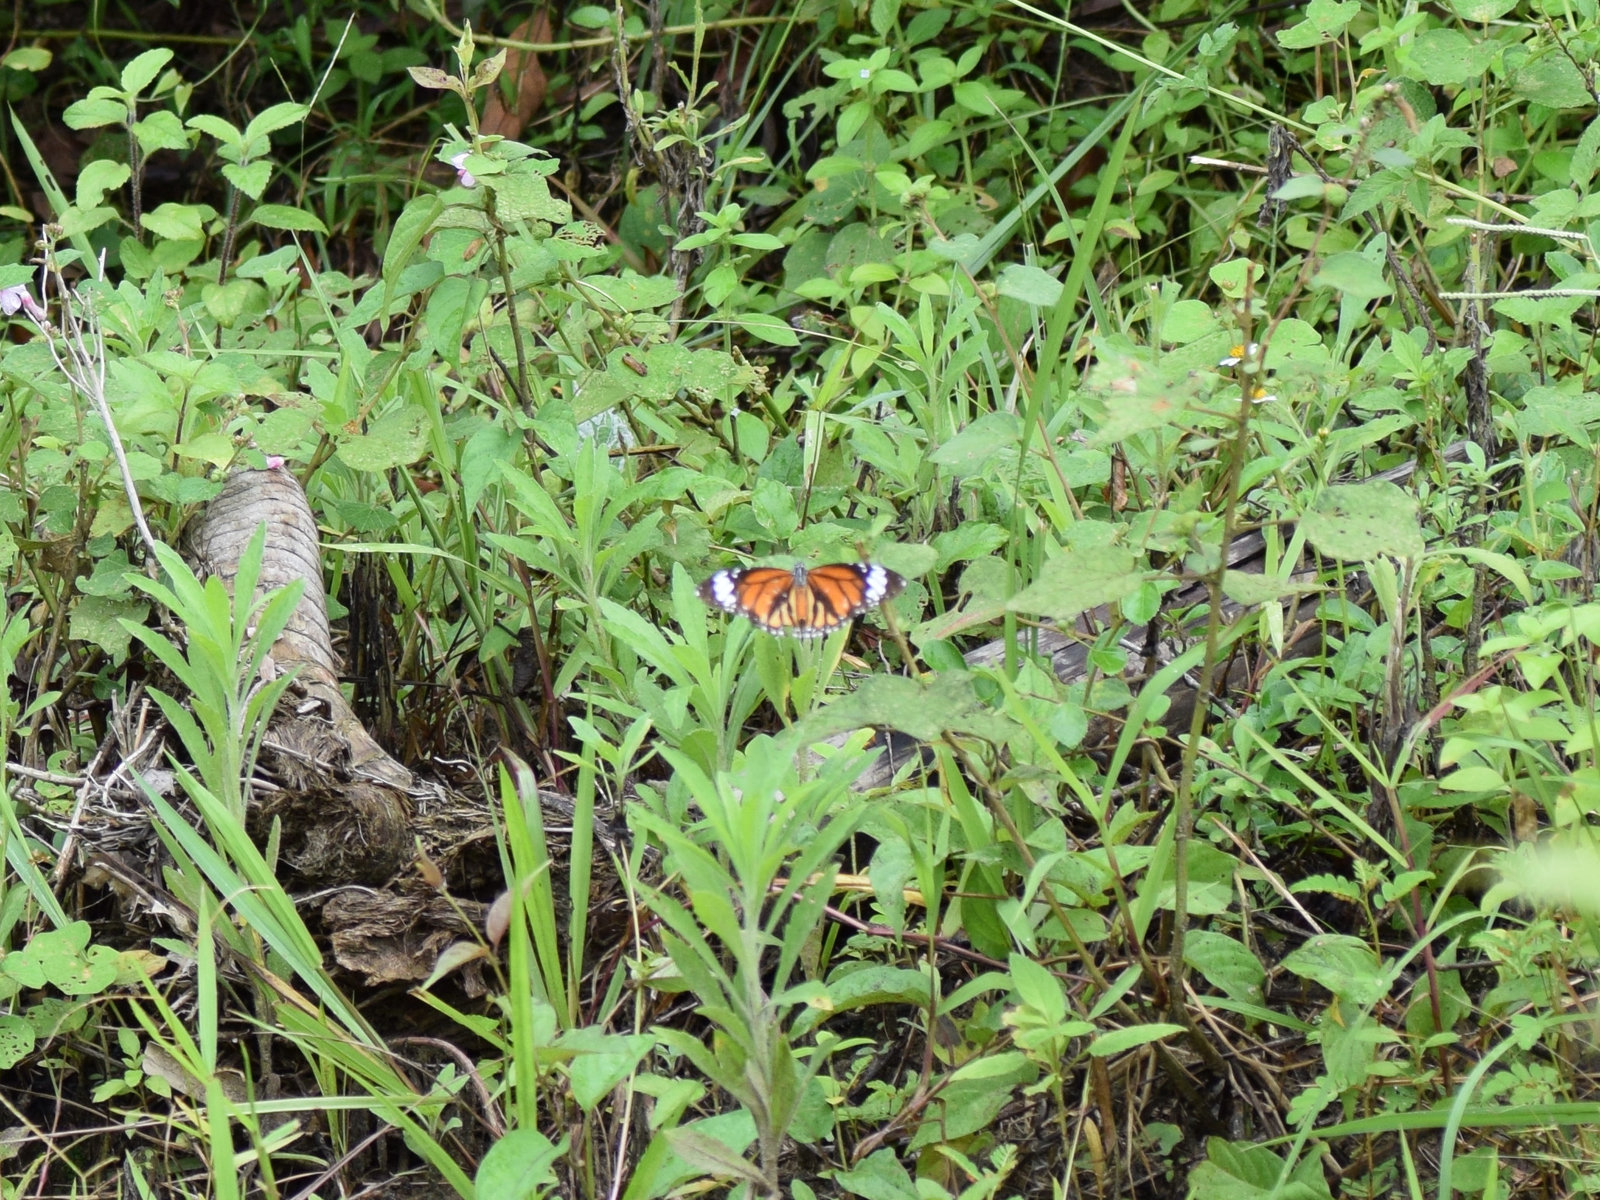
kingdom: Animalia
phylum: Arthropoda
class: Insecta
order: Lepidoptera
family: Nymphalidae
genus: Danaus
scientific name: Danaus genutia
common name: Common tiger butterfly
